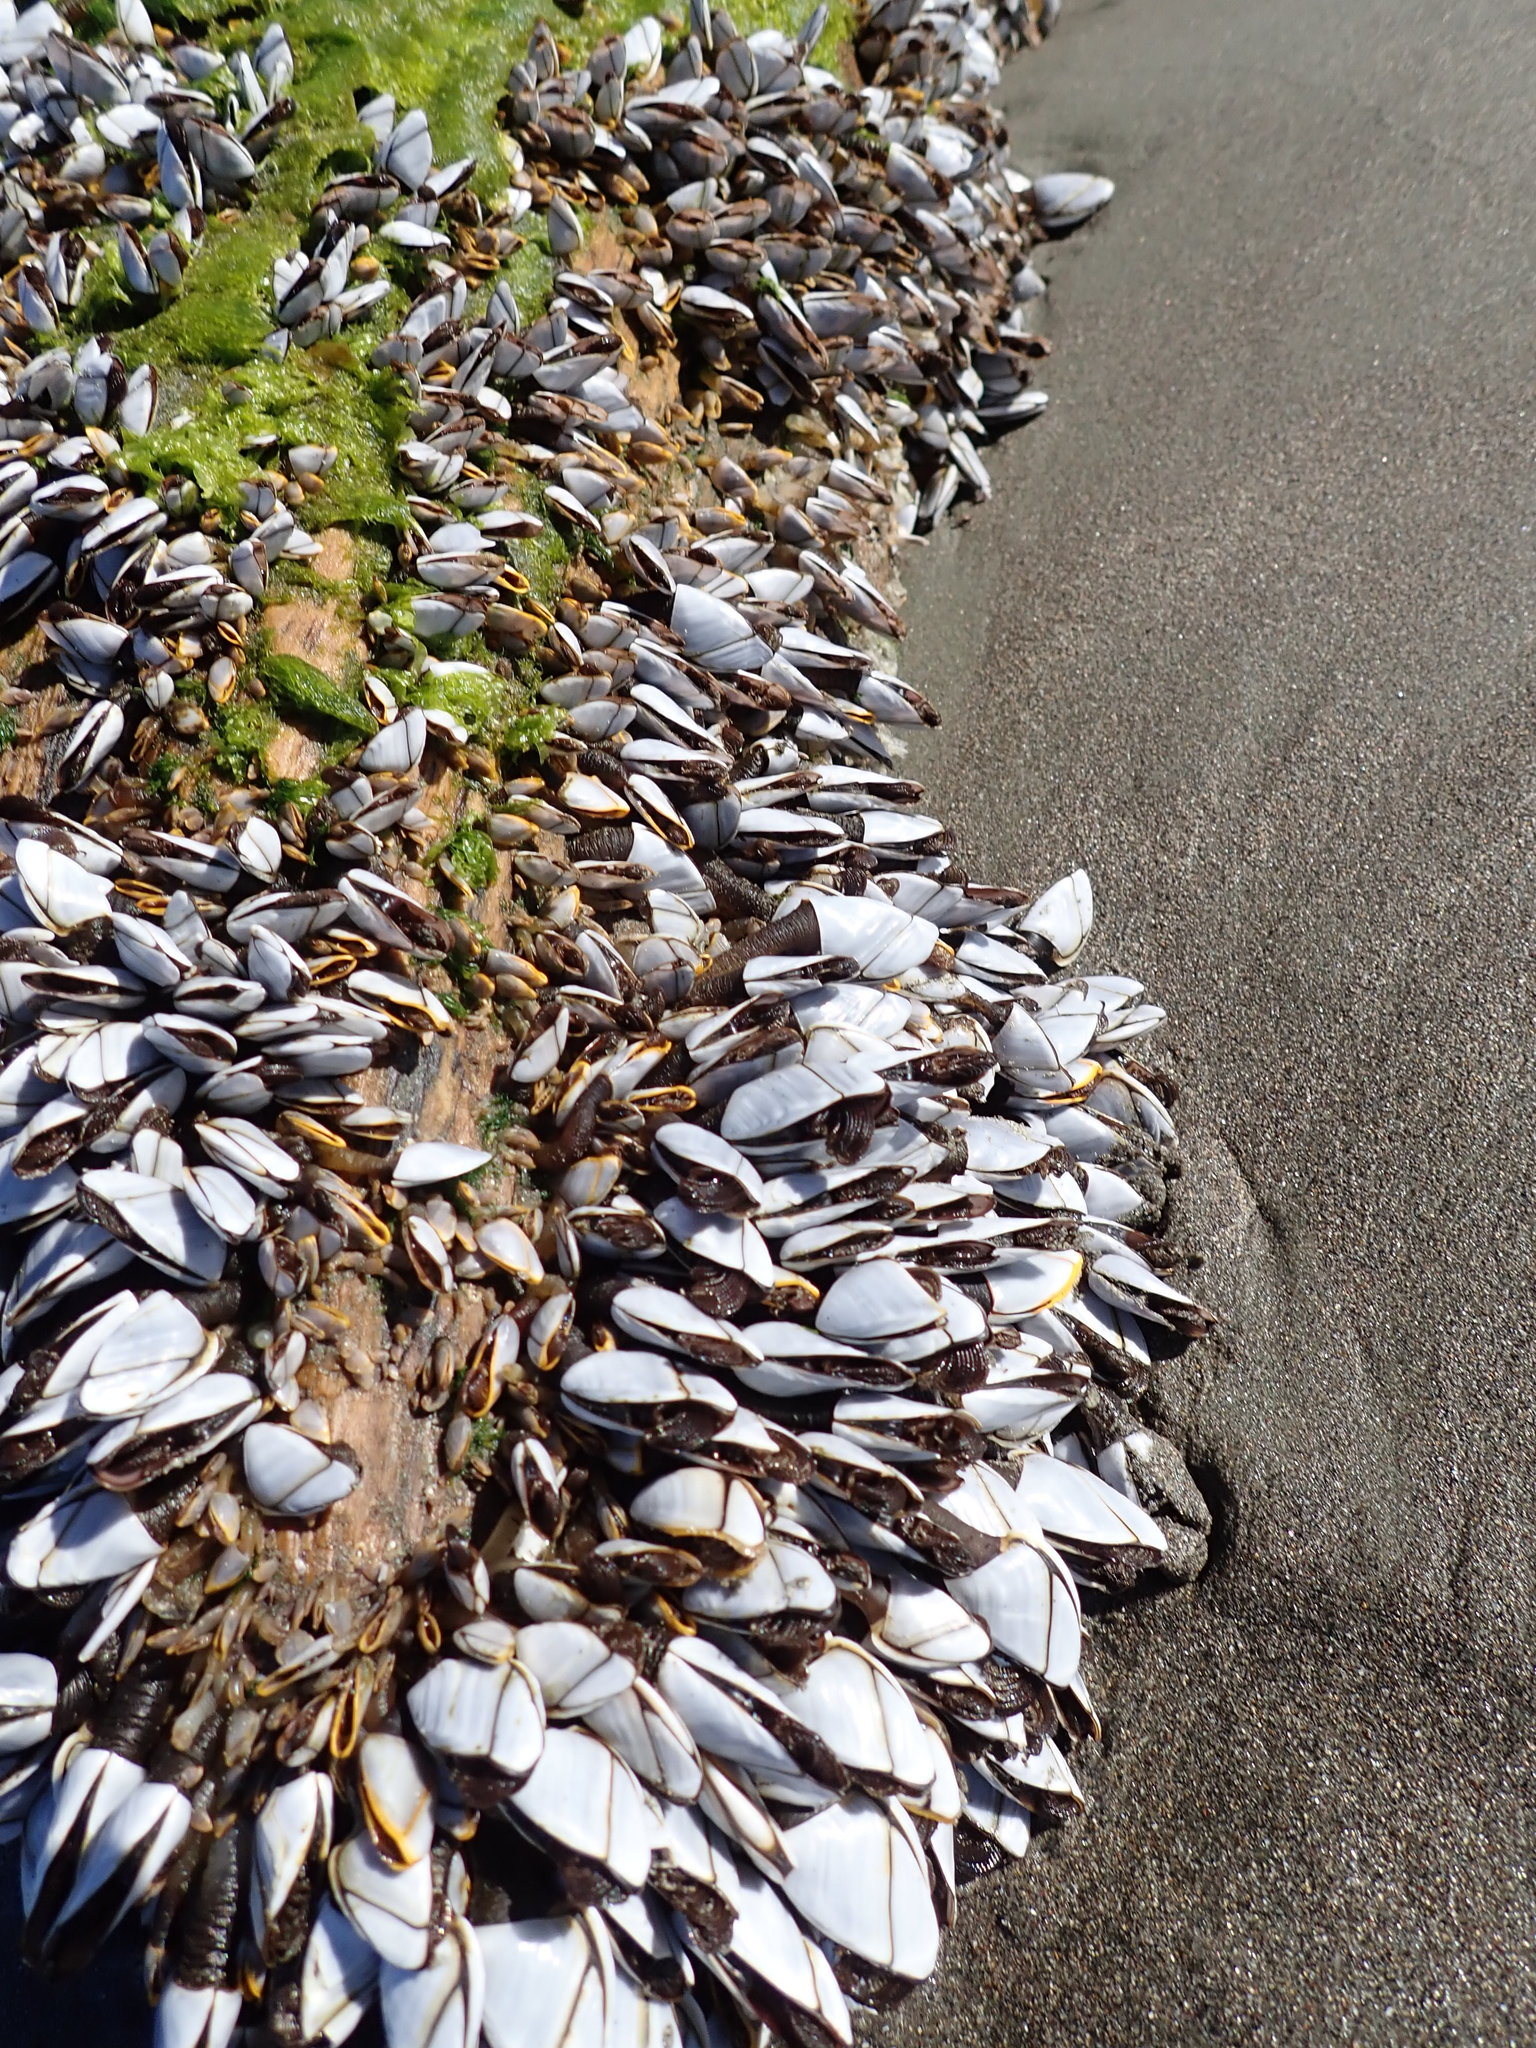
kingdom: Animalia
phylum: Arthropoda
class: Maxillopoda
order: Pedunculata
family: Lepadidae
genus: Lepas
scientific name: Lepas anatifera
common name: Common goose barnacle
